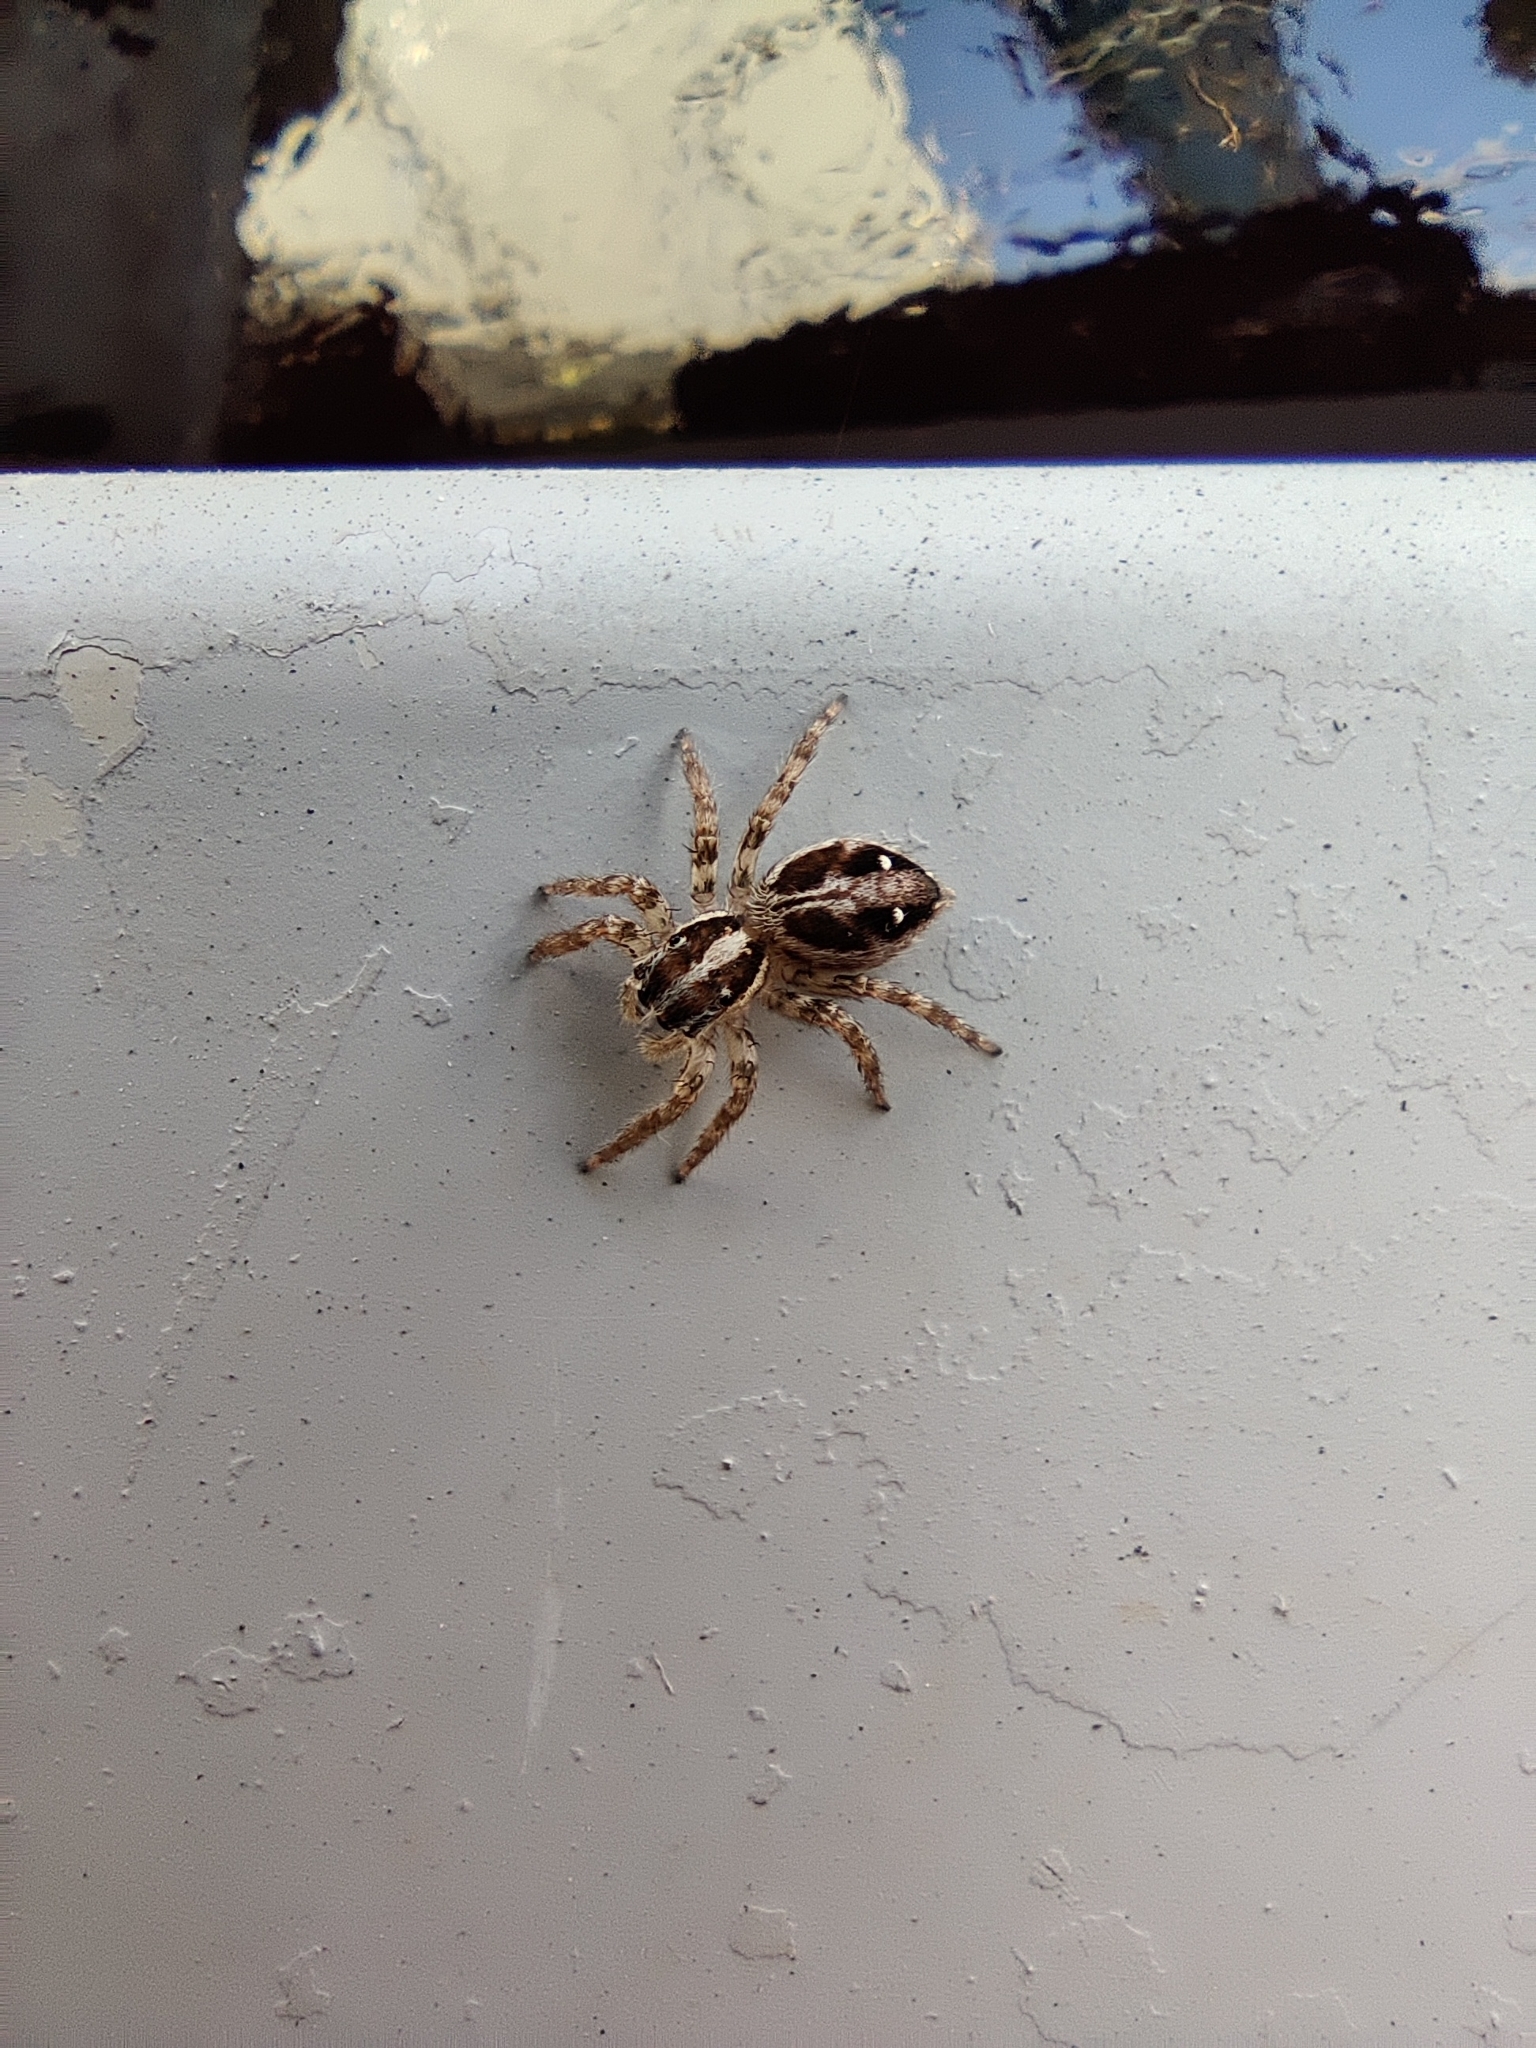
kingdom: Animalia
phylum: Arthropoda
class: Arachnida
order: Araneae
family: Salticidae
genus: Plexippus
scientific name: Plexippus paykulli
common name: Pantropical jumper
